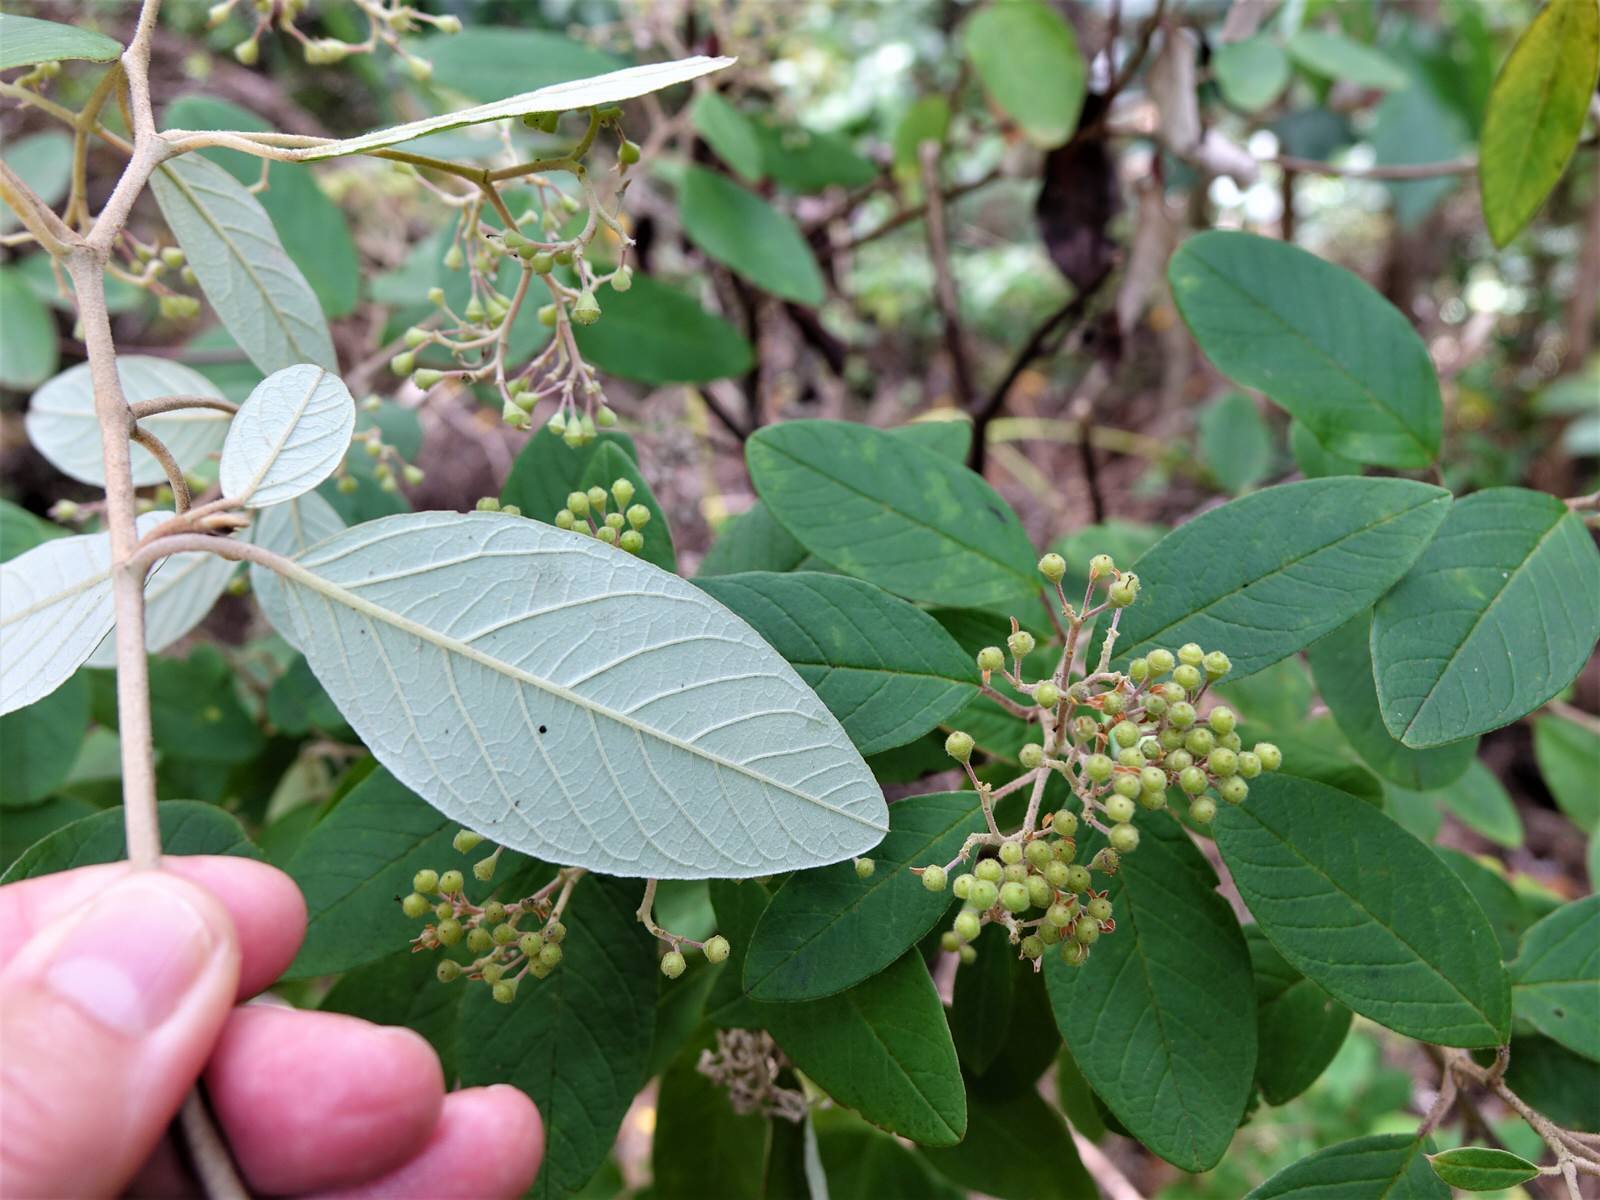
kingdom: Plantae
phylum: Tracheophyta
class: Magnoliopsida
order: Rosales
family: Rhamnaceae
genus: Pomaderris
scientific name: Pomaderris kumeraho
